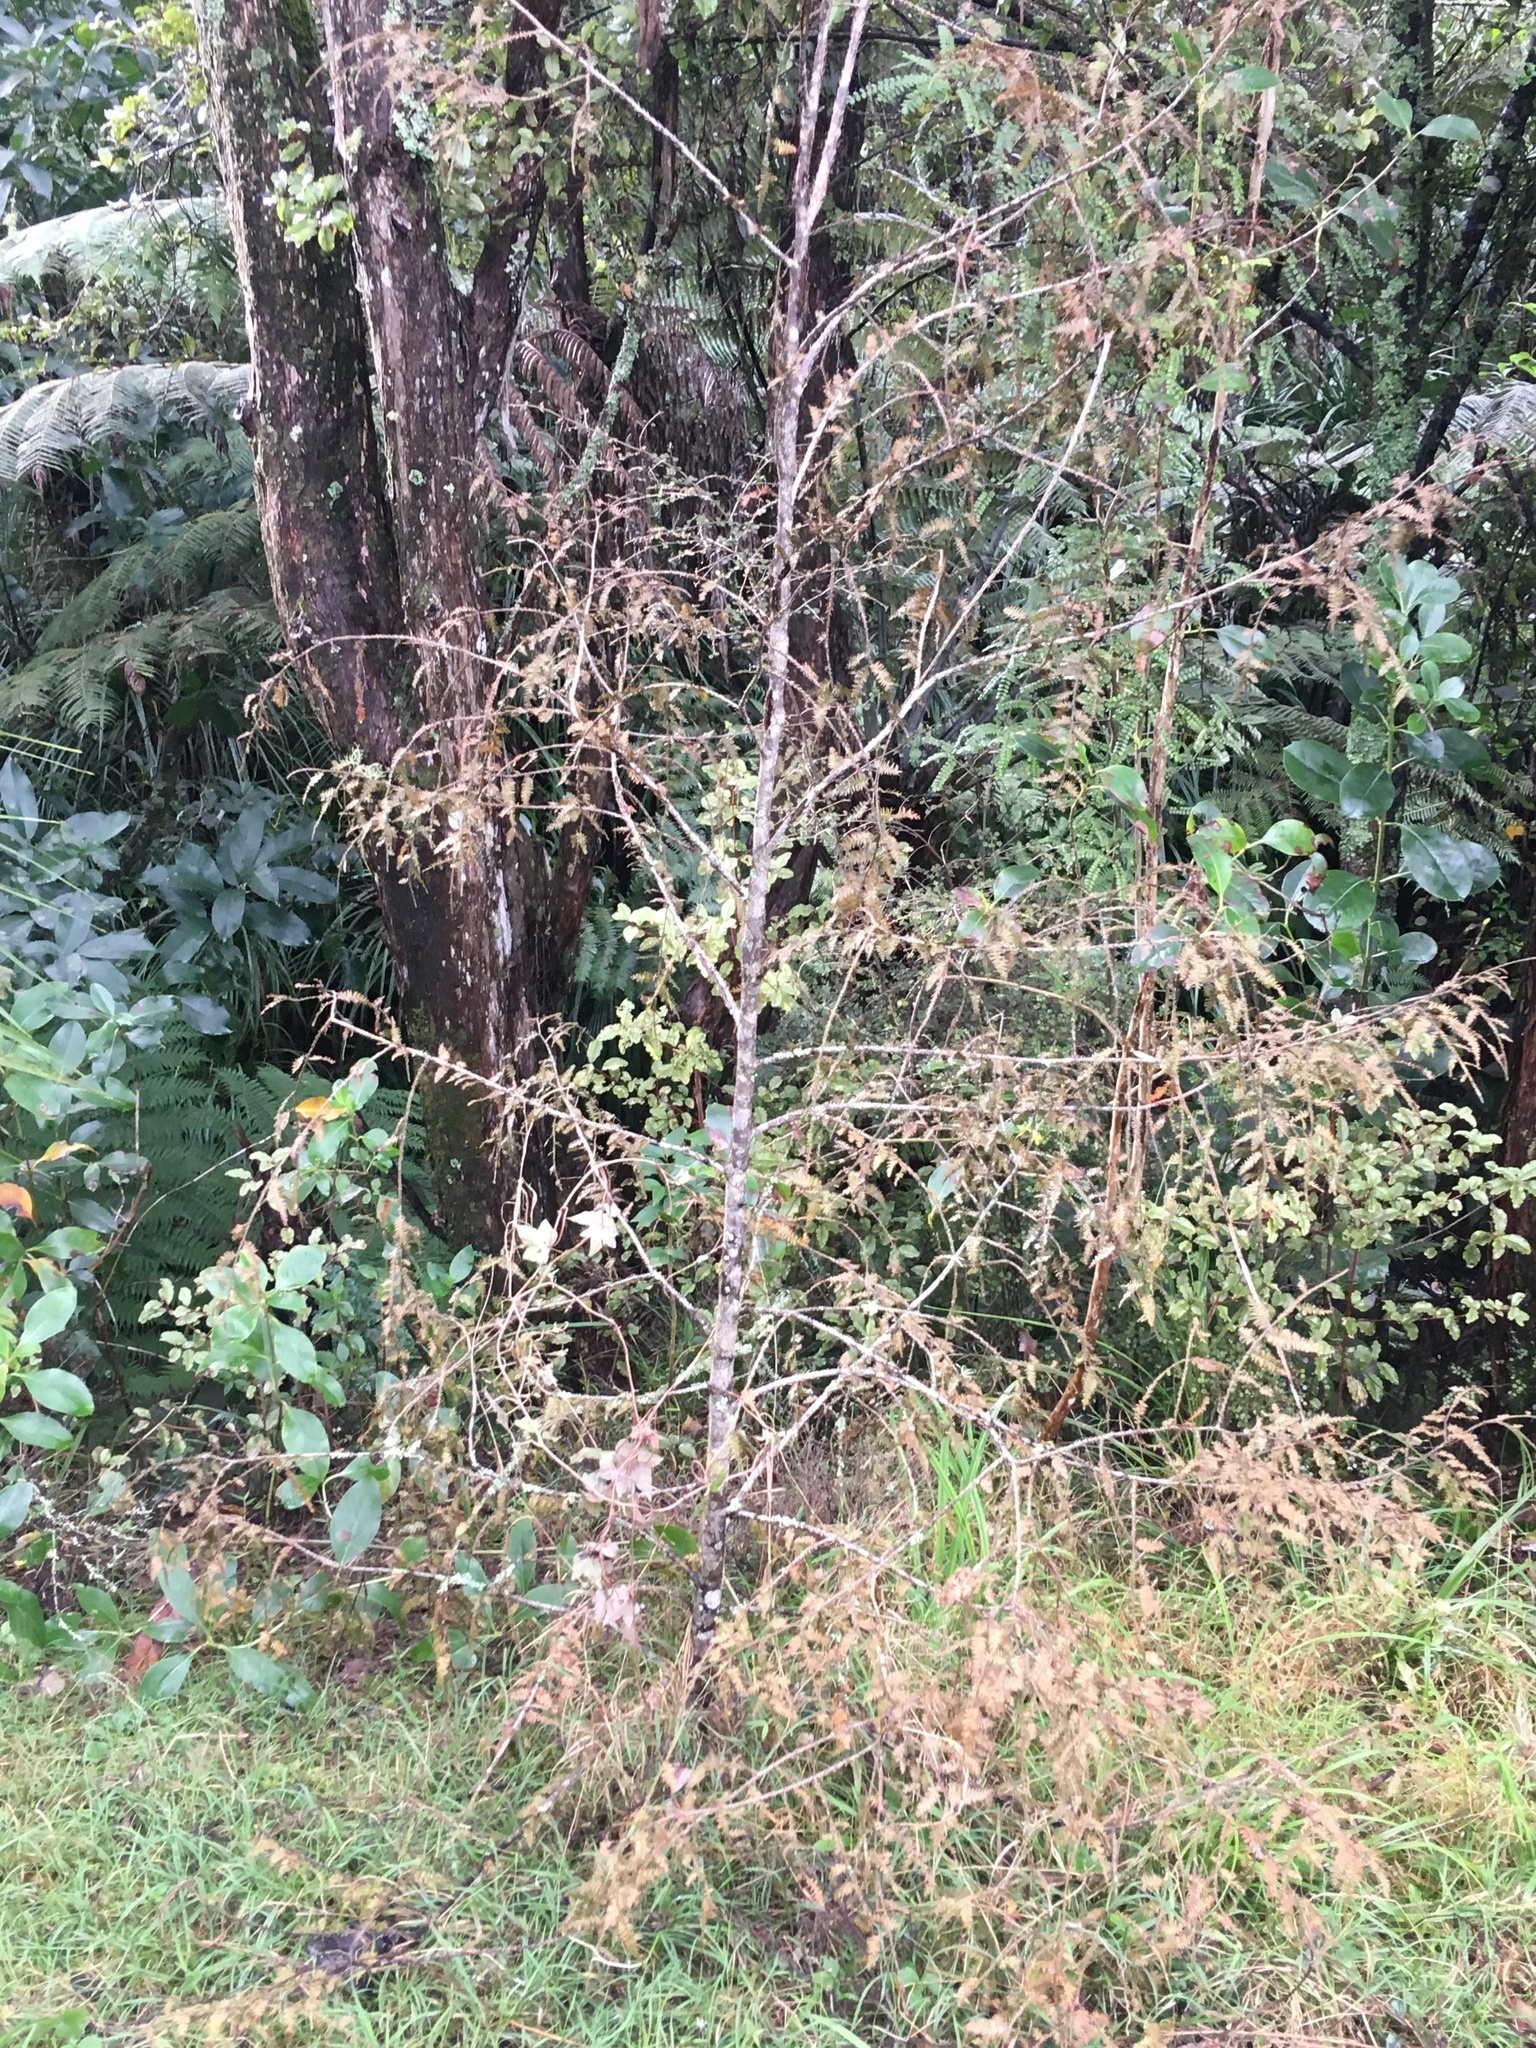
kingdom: Plantae
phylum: Tracheophyta
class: Pinopsida
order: Pinales
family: Podocarpaceae
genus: Dacrycarpus
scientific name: Dacrycarpus dacrydioides
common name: White pine
